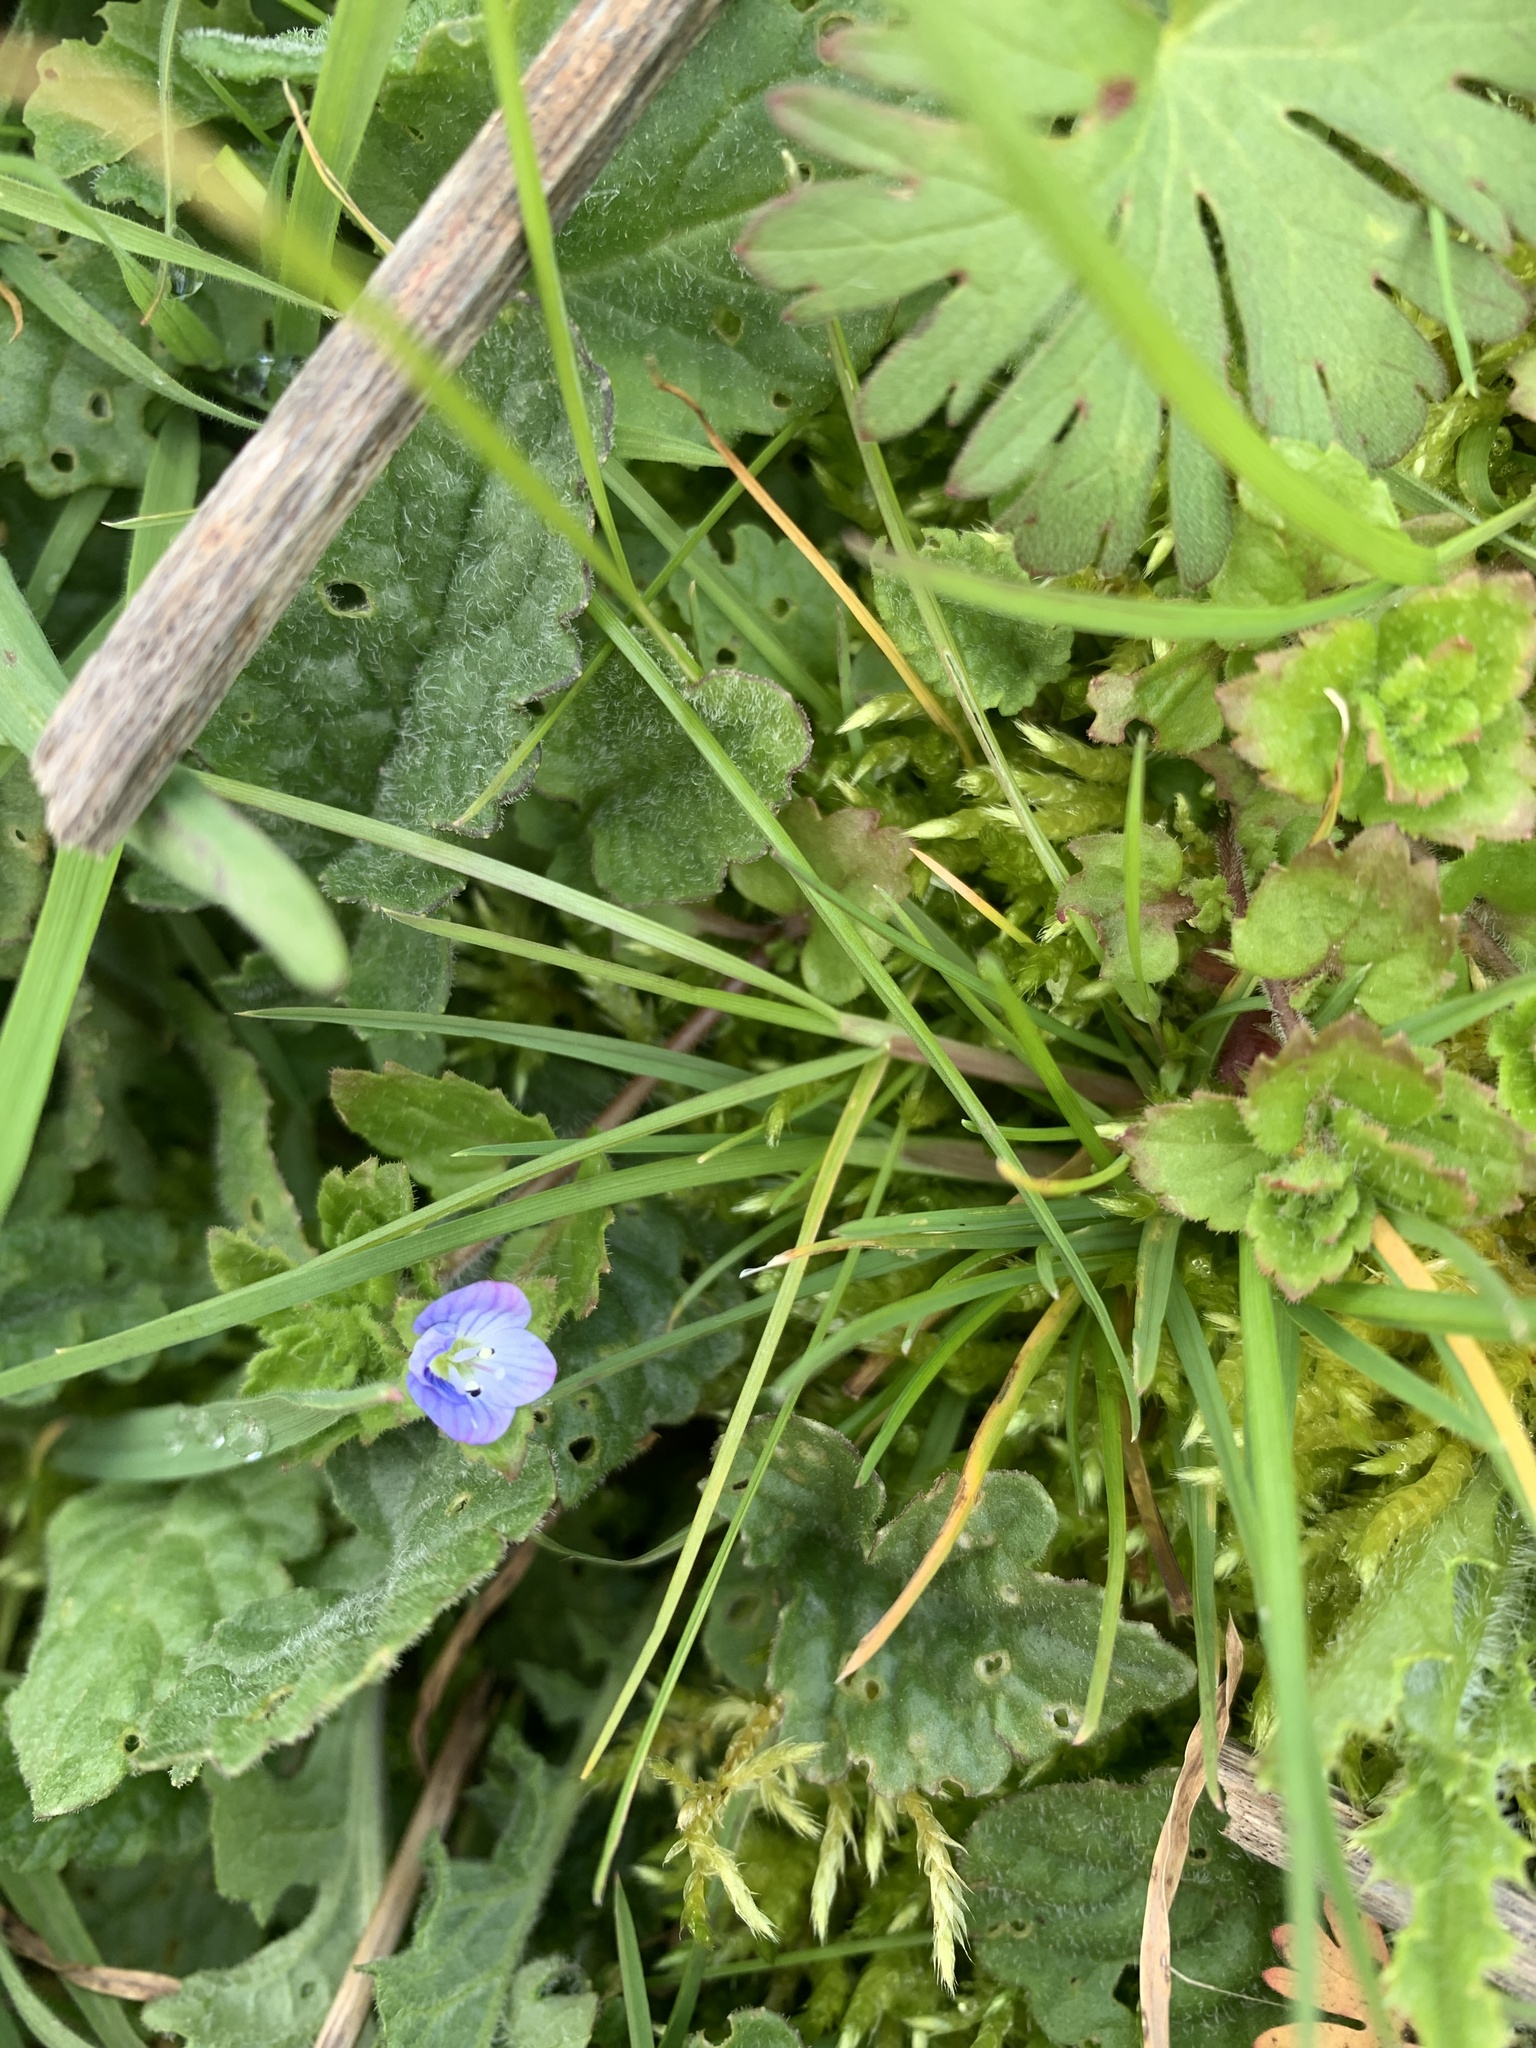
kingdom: Plantae
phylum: Tracheophyta
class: Magnoliopsida
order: Lamiales
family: Plantaginaceae
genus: Veronica
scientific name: Veronica persica
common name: Common field-speedwell
